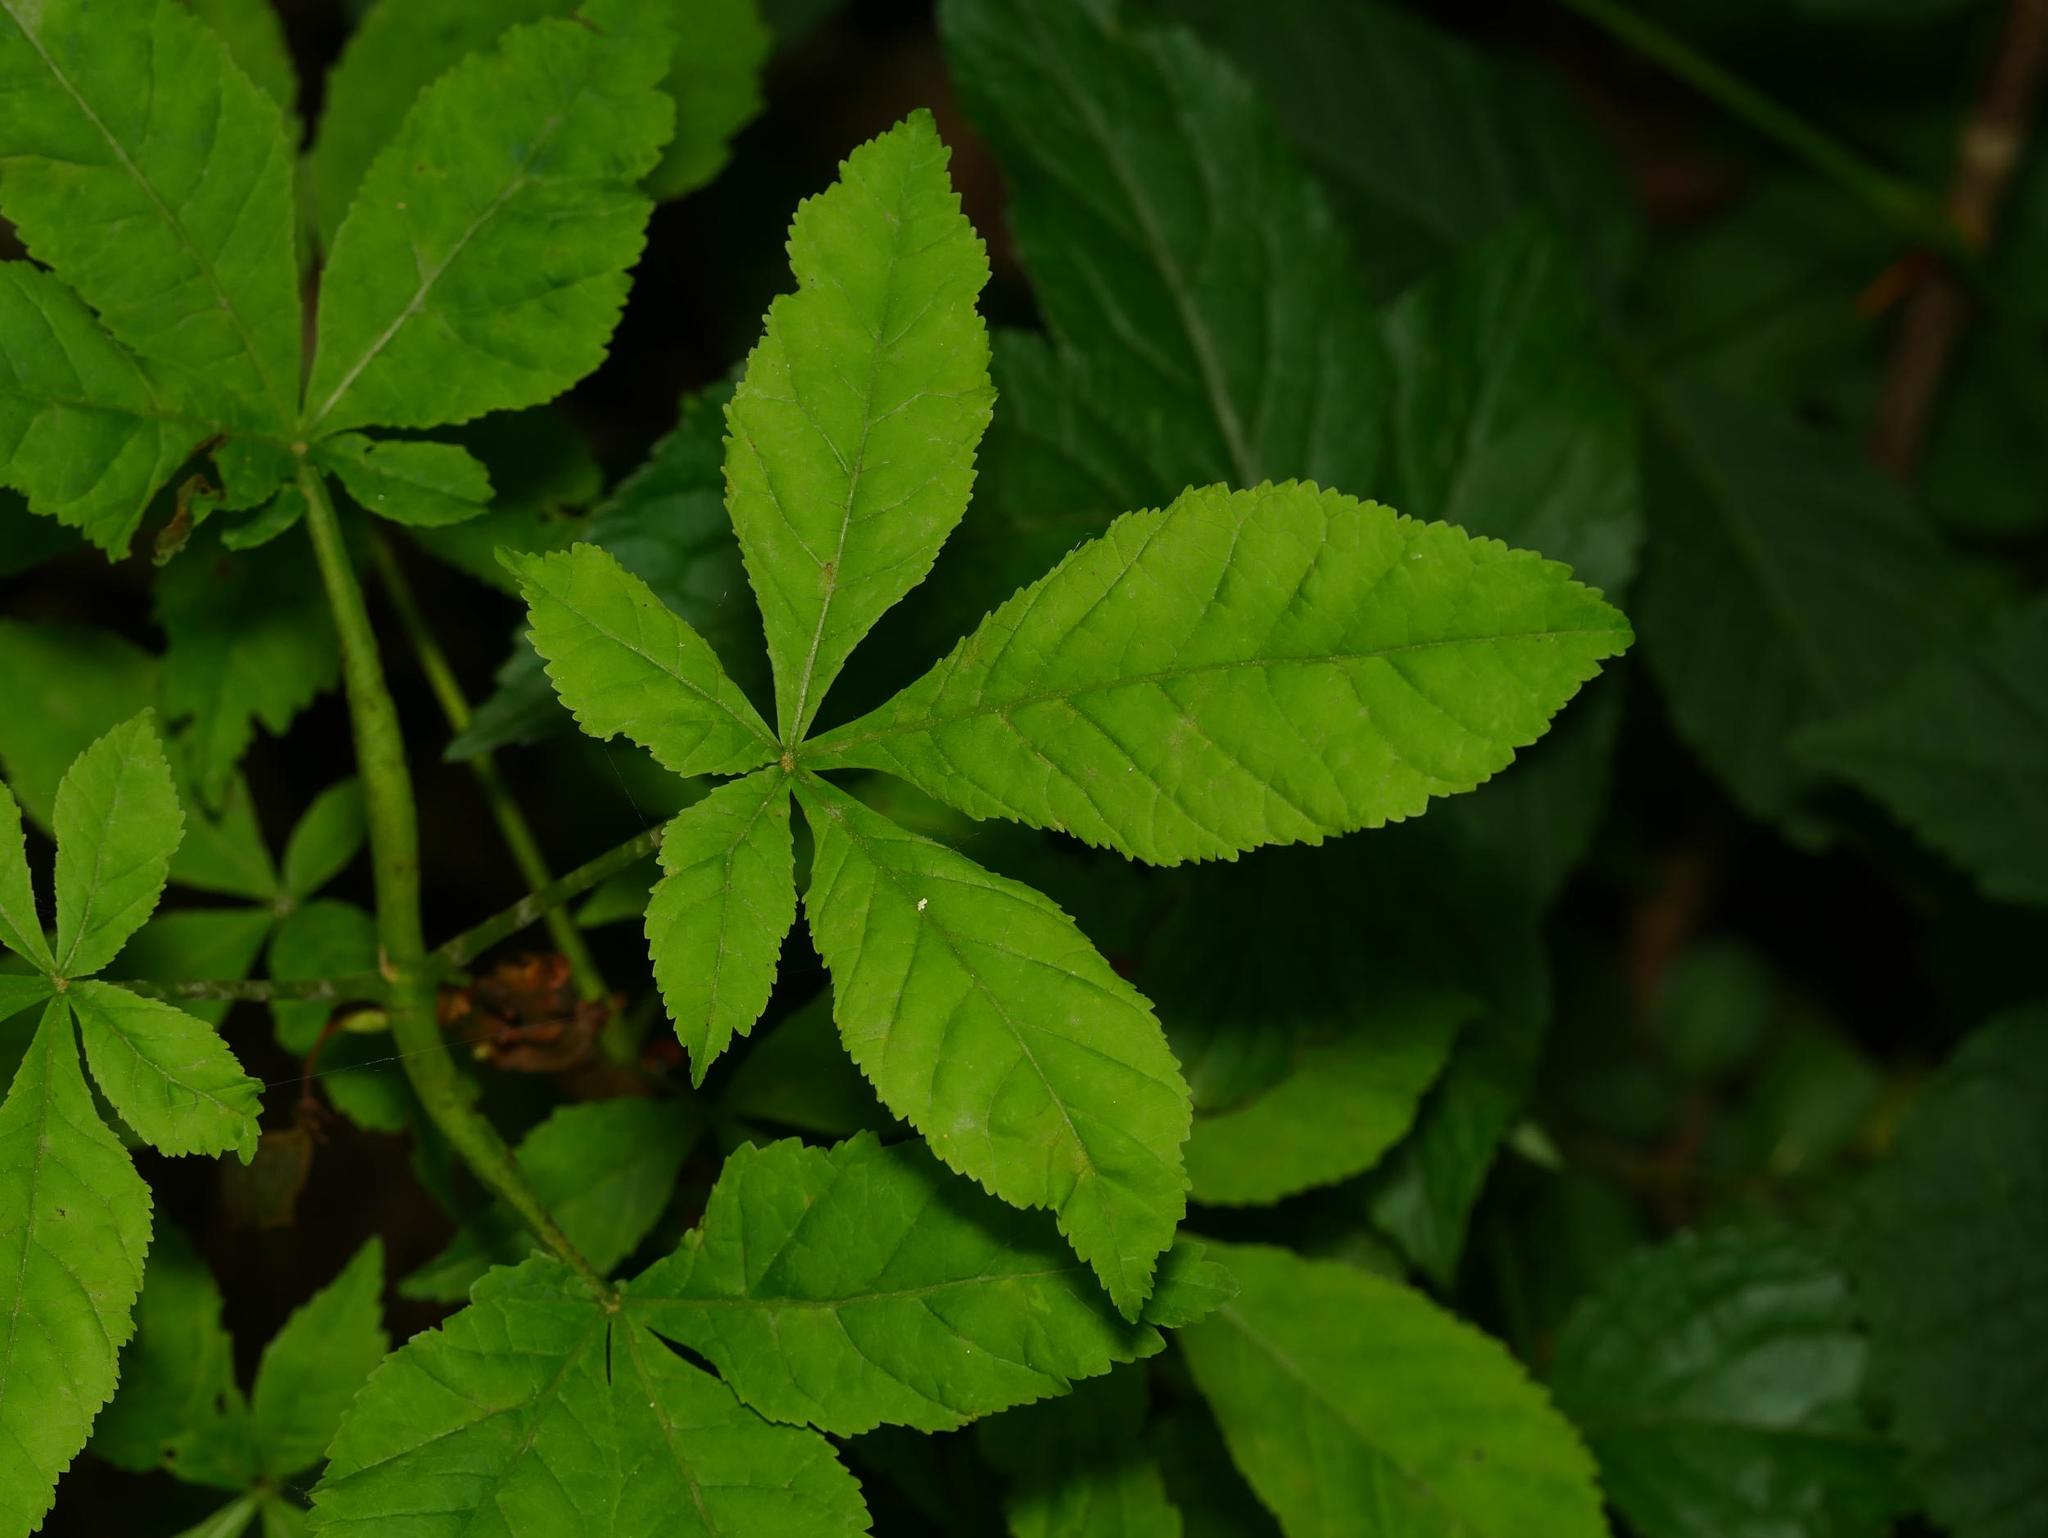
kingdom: Plantae
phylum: Tracheophyta
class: Magnoliopsida
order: Sapindales
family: Sapindaceae
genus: Aesculus
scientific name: Aesculus hippocastanum
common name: Horse-chestnut
